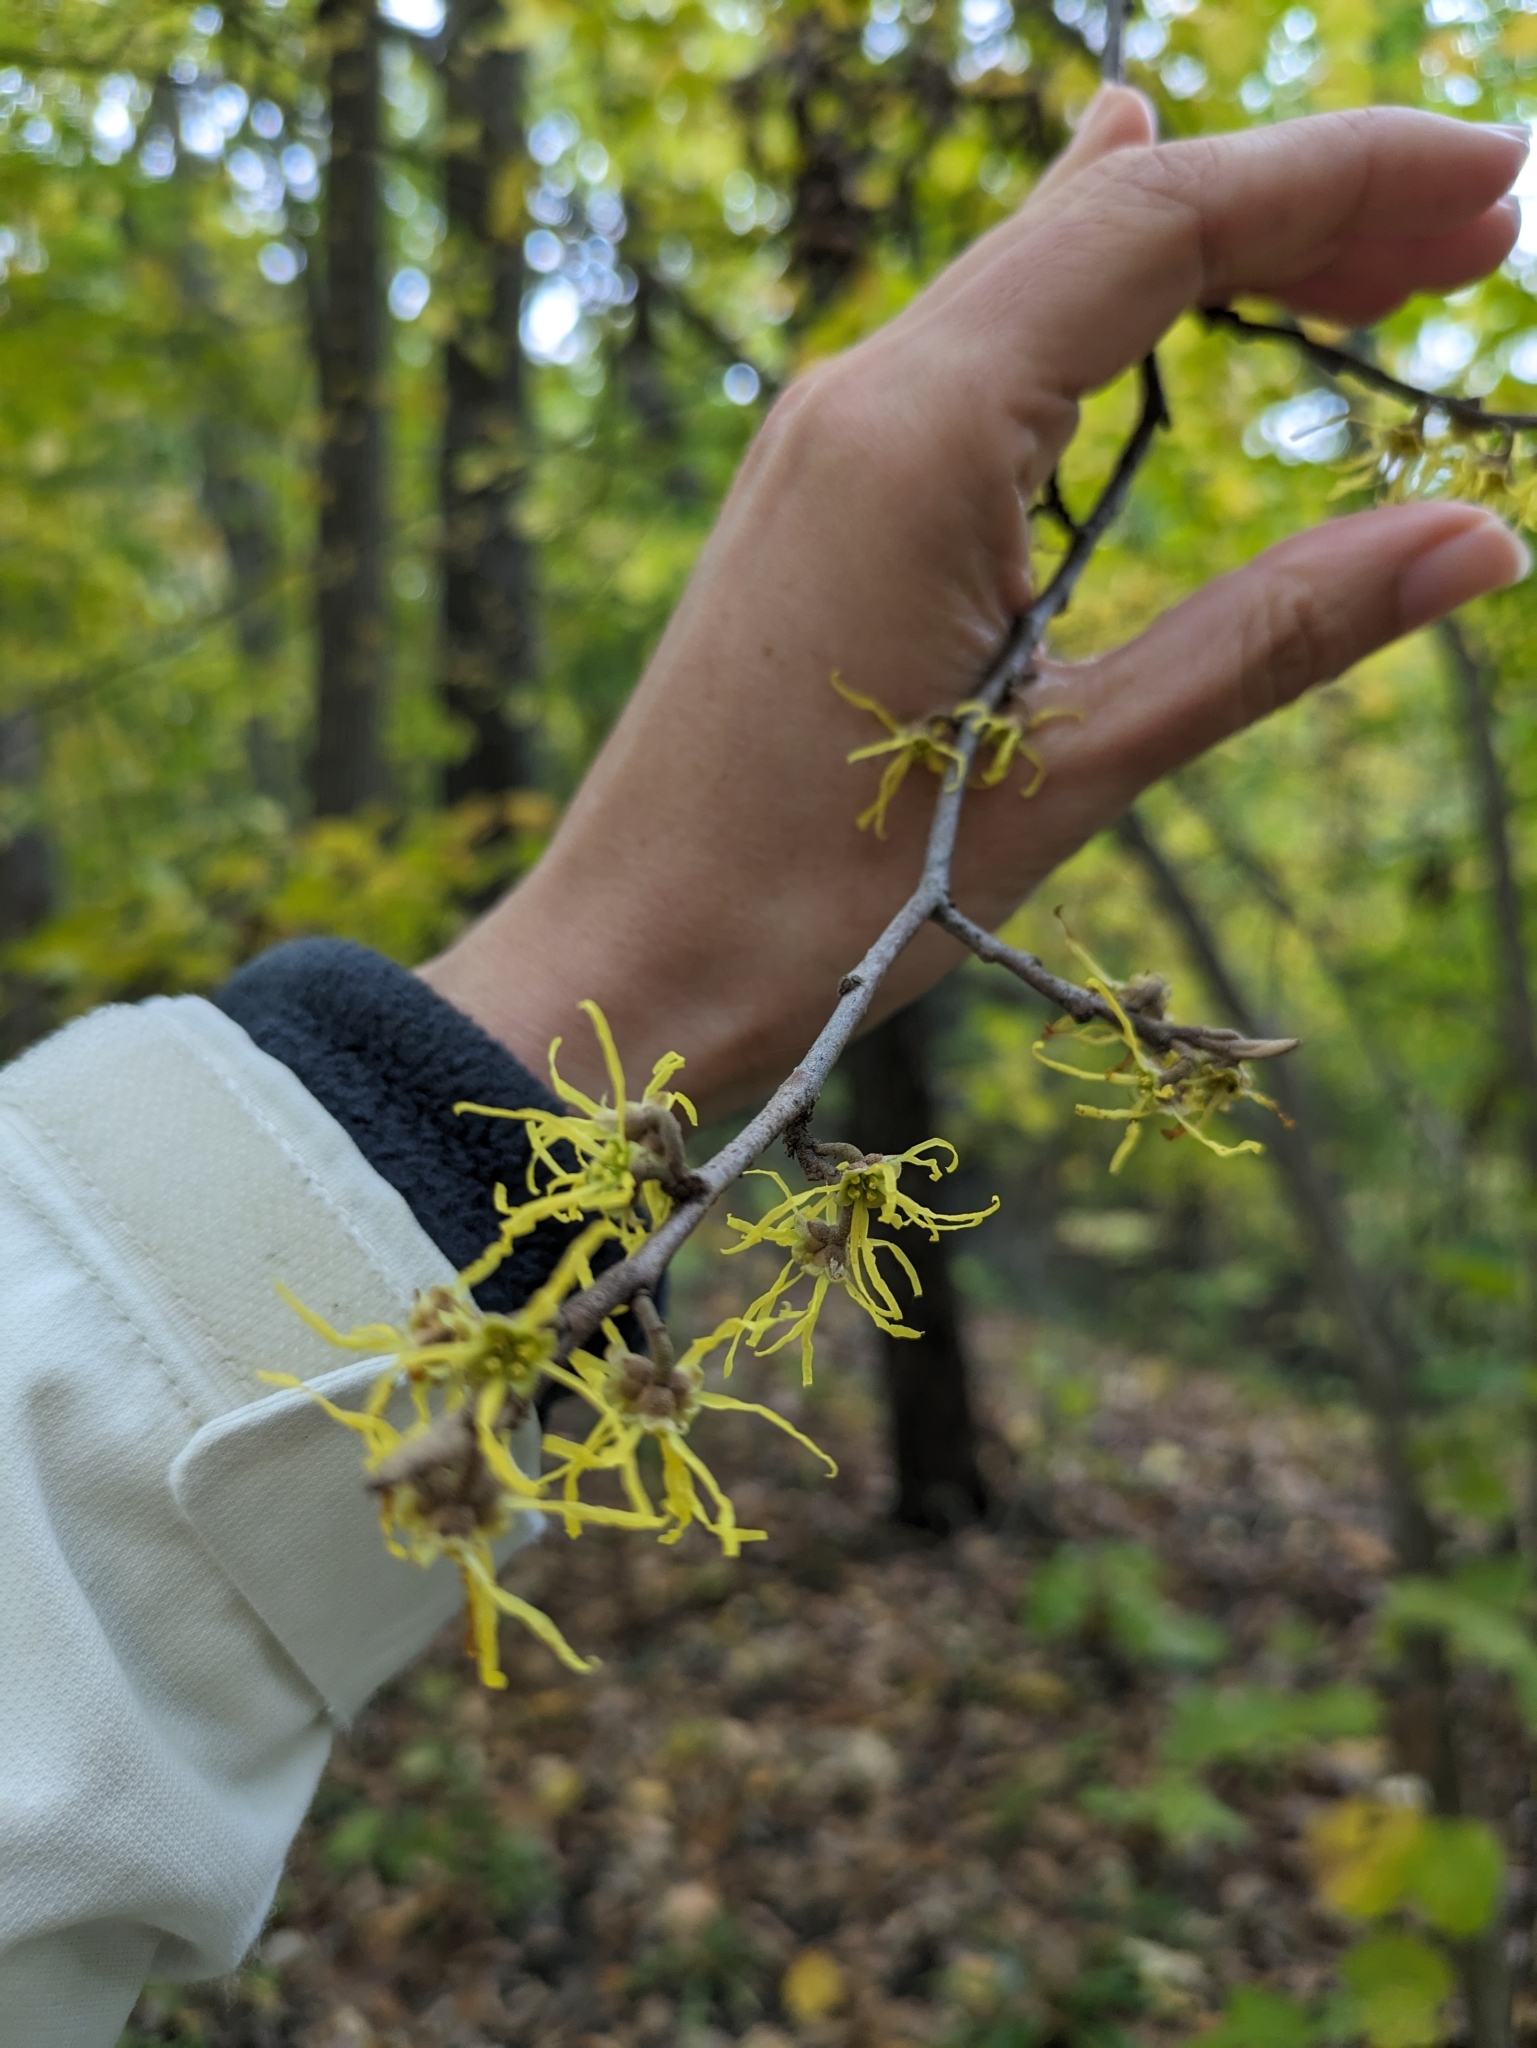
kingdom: Plantae
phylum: Tracheophyta
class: Magnoliopsida
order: Saxifragales
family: Hamamelidaceae
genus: Hamamelis
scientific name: Hamamelis virginiana
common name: Witch-hazel
